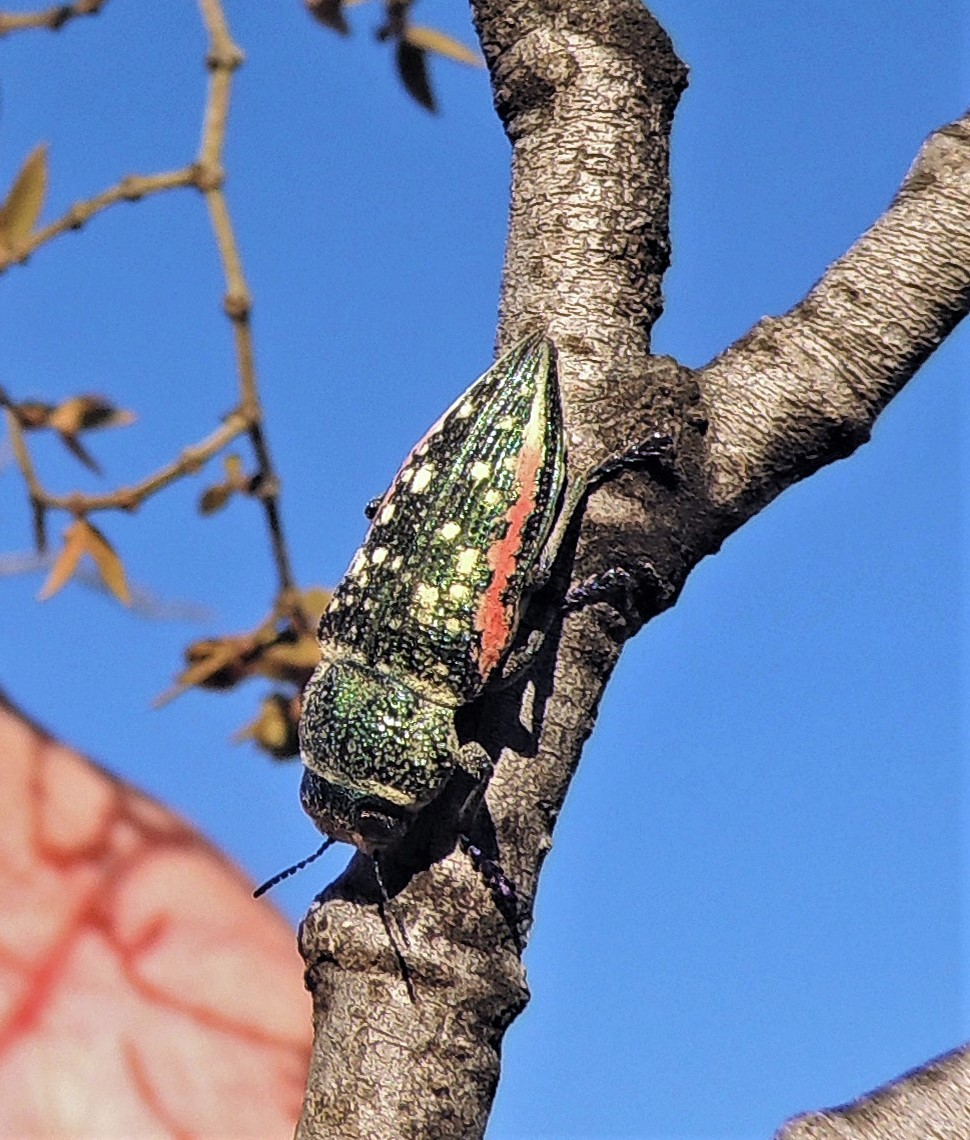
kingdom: Animalia
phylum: Arthropoda
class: Insecta
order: Coleoptera
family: Buprestidae
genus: Lampetis
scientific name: Lampetis plagiata
